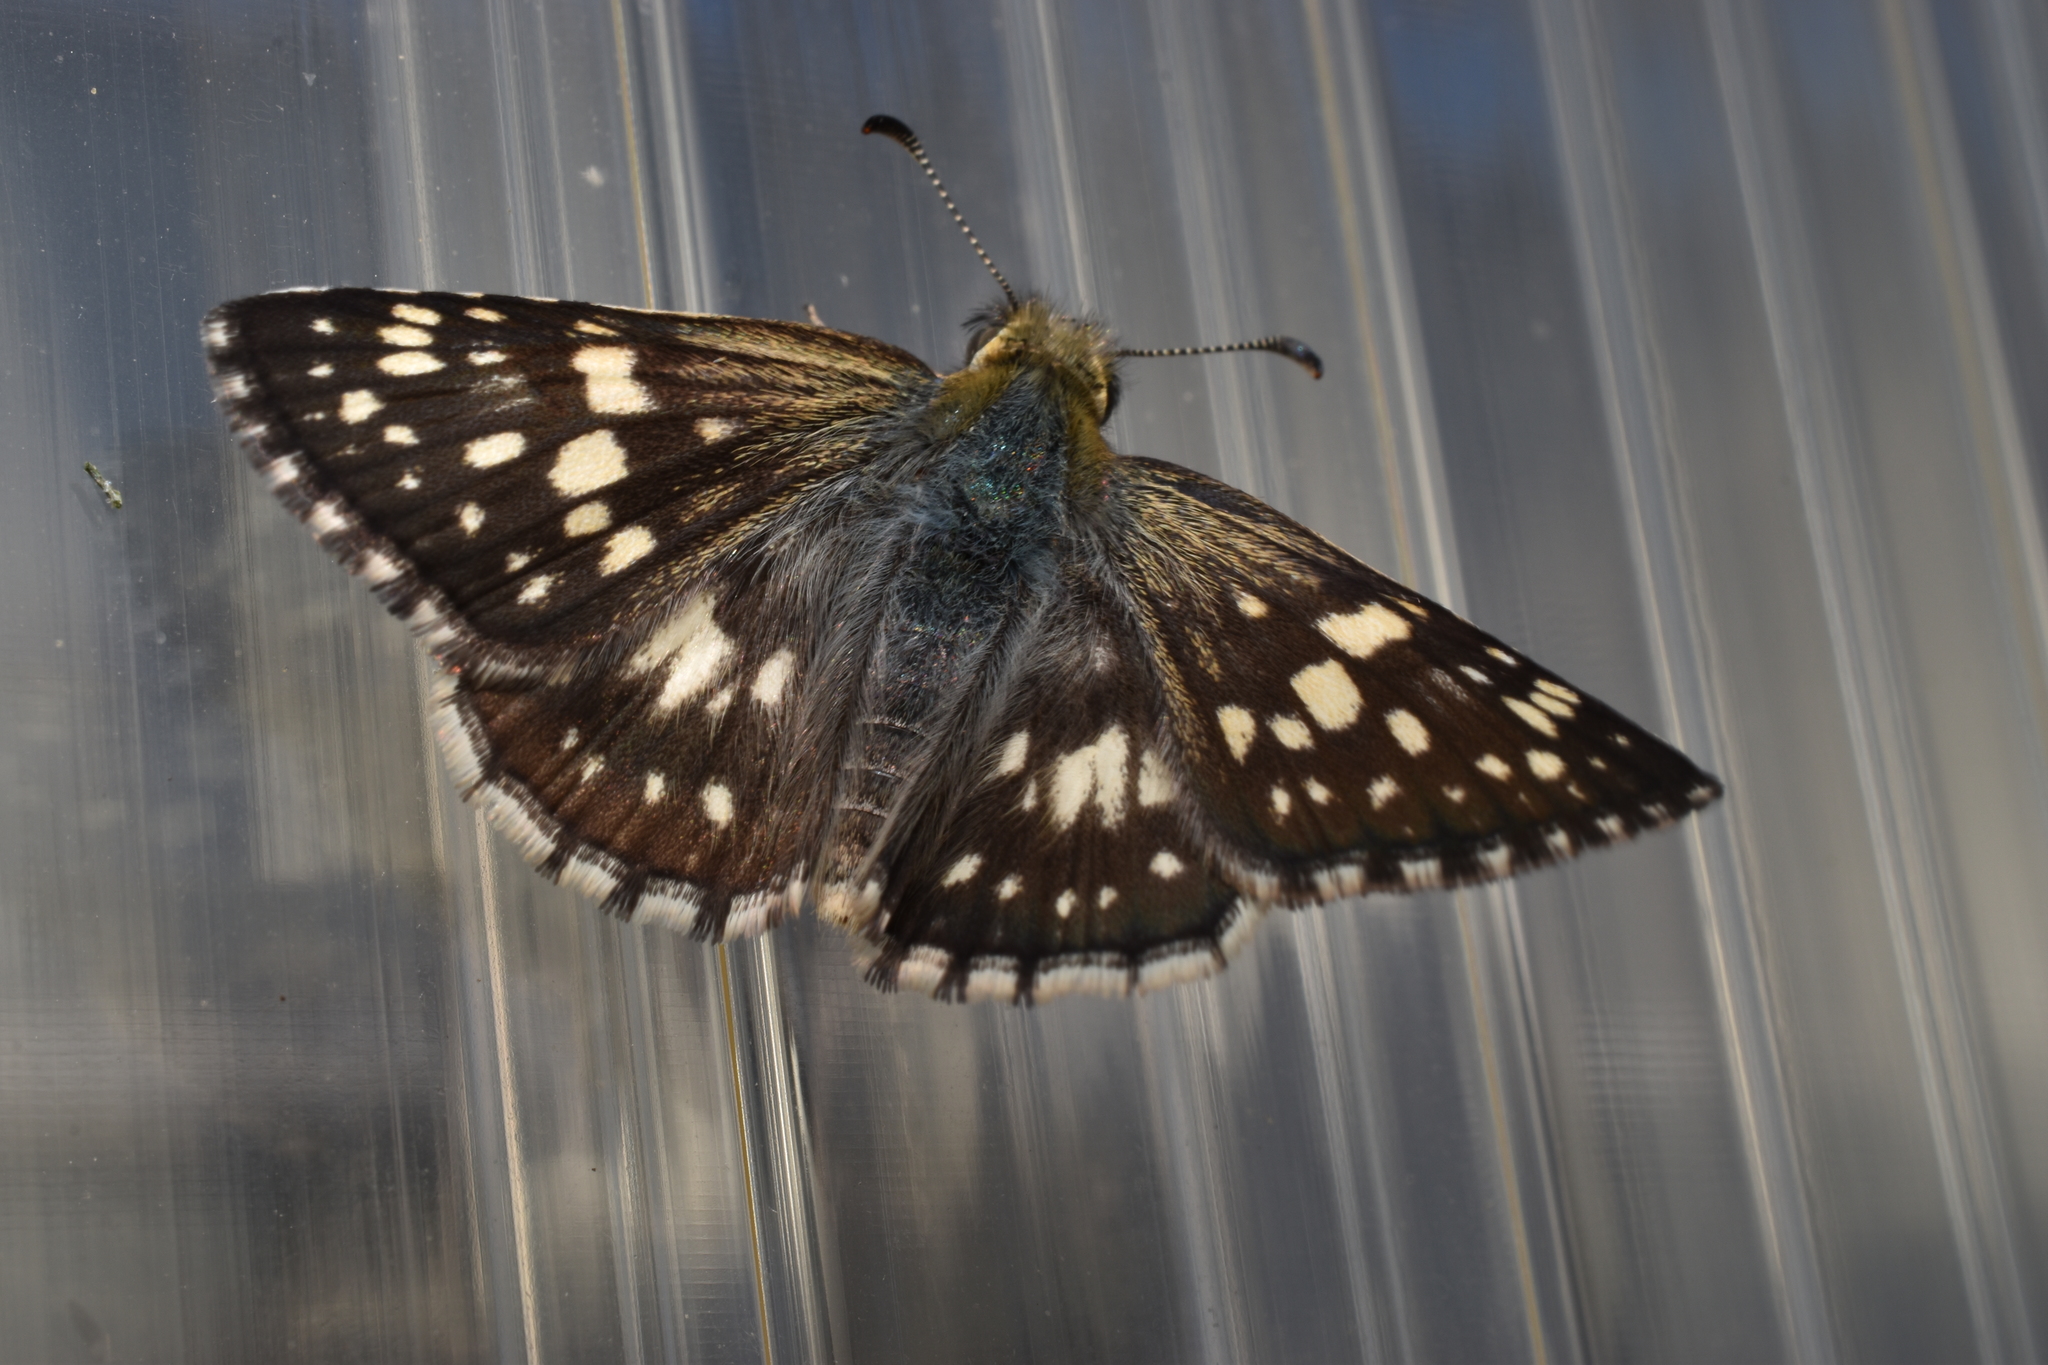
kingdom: Animalia
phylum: Arthropoda
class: Insecta
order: Lepidoptera
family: Hesperiidae
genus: Burnsius
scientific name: Burnsius communis
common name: Common checkered-skipper
